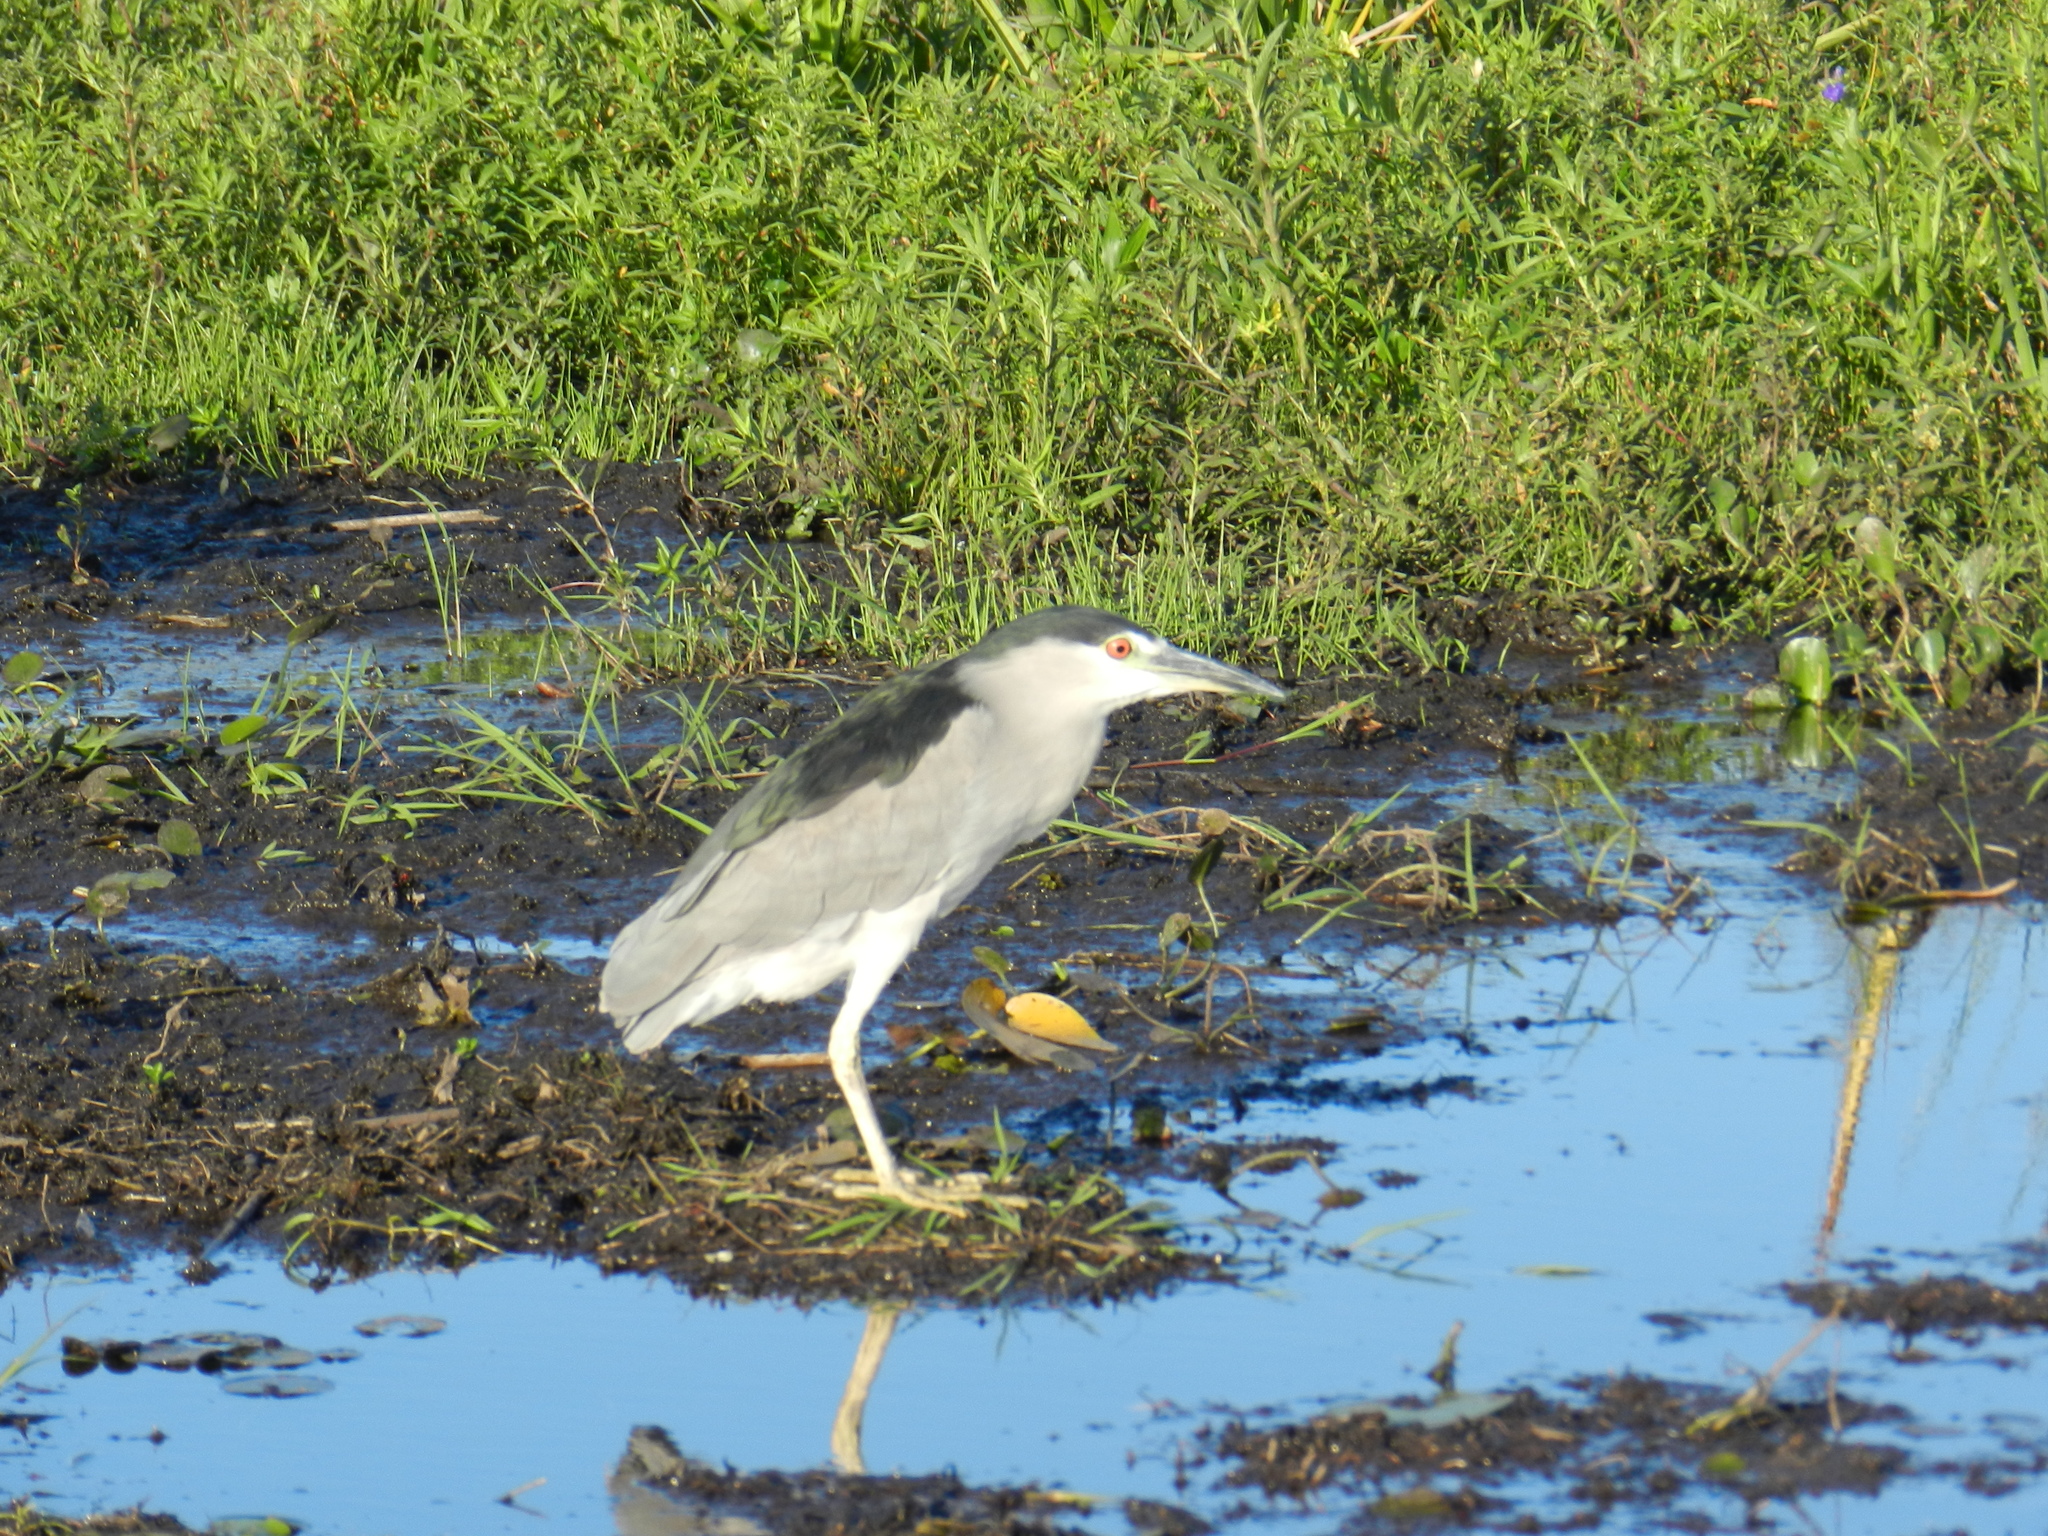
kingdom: Animalia
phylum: Chordata
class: Aves
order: Pelecaniformes
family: Ardeidae
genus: Nycticorax
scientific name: Nycticorax nycticorax
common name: Black-crowned night heron
